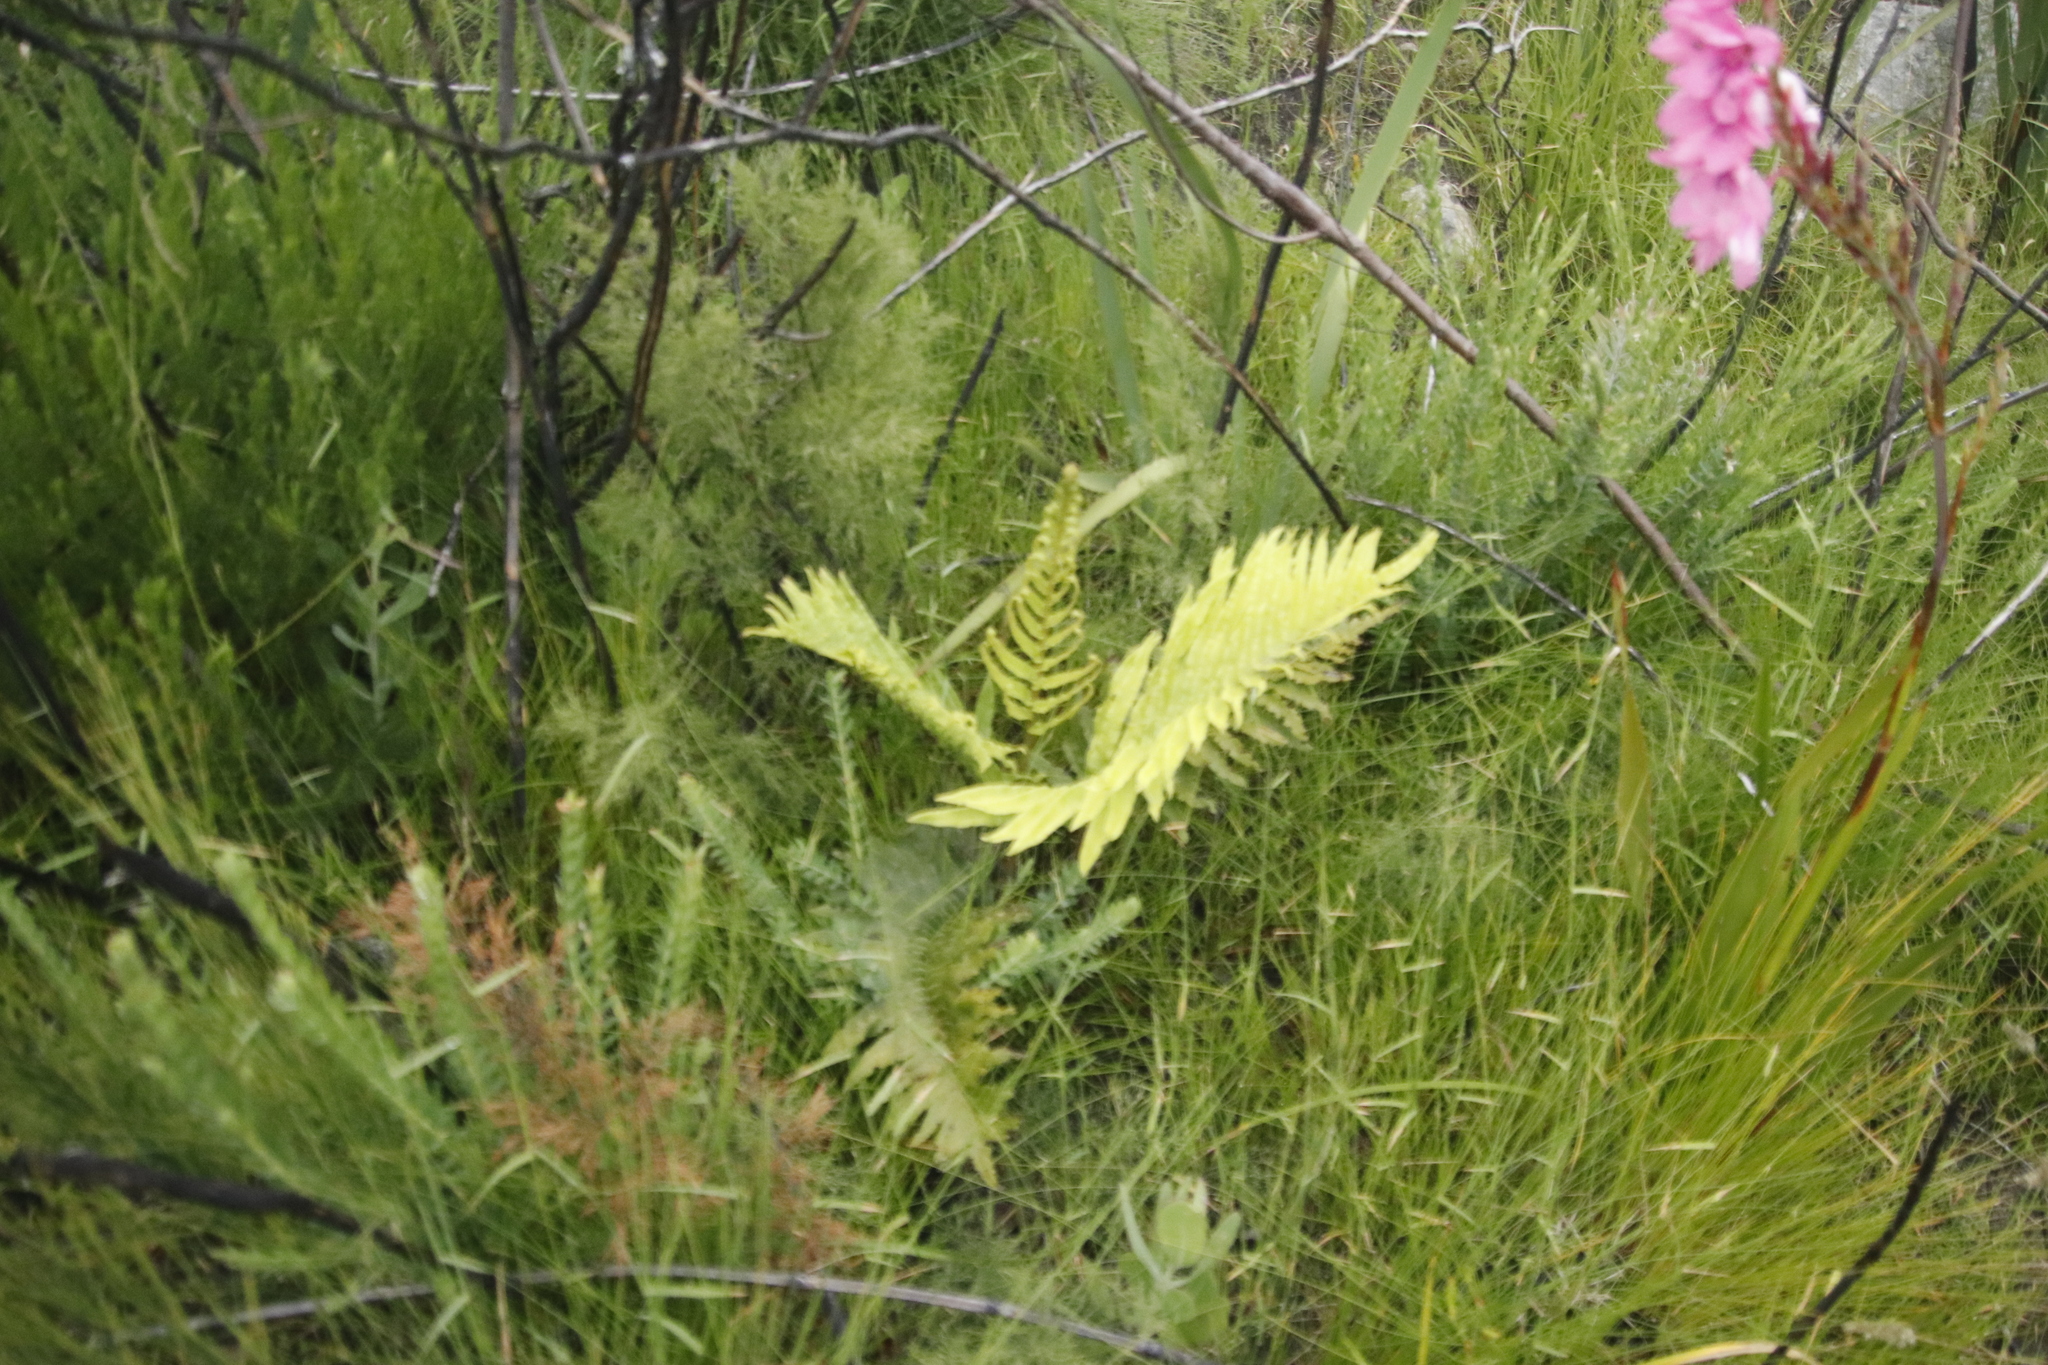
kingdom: Plantae
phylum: Tracheophyta
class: Polypodiopsida
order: Polypodiales
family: Blechnaceae
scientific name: Blechnaceae
